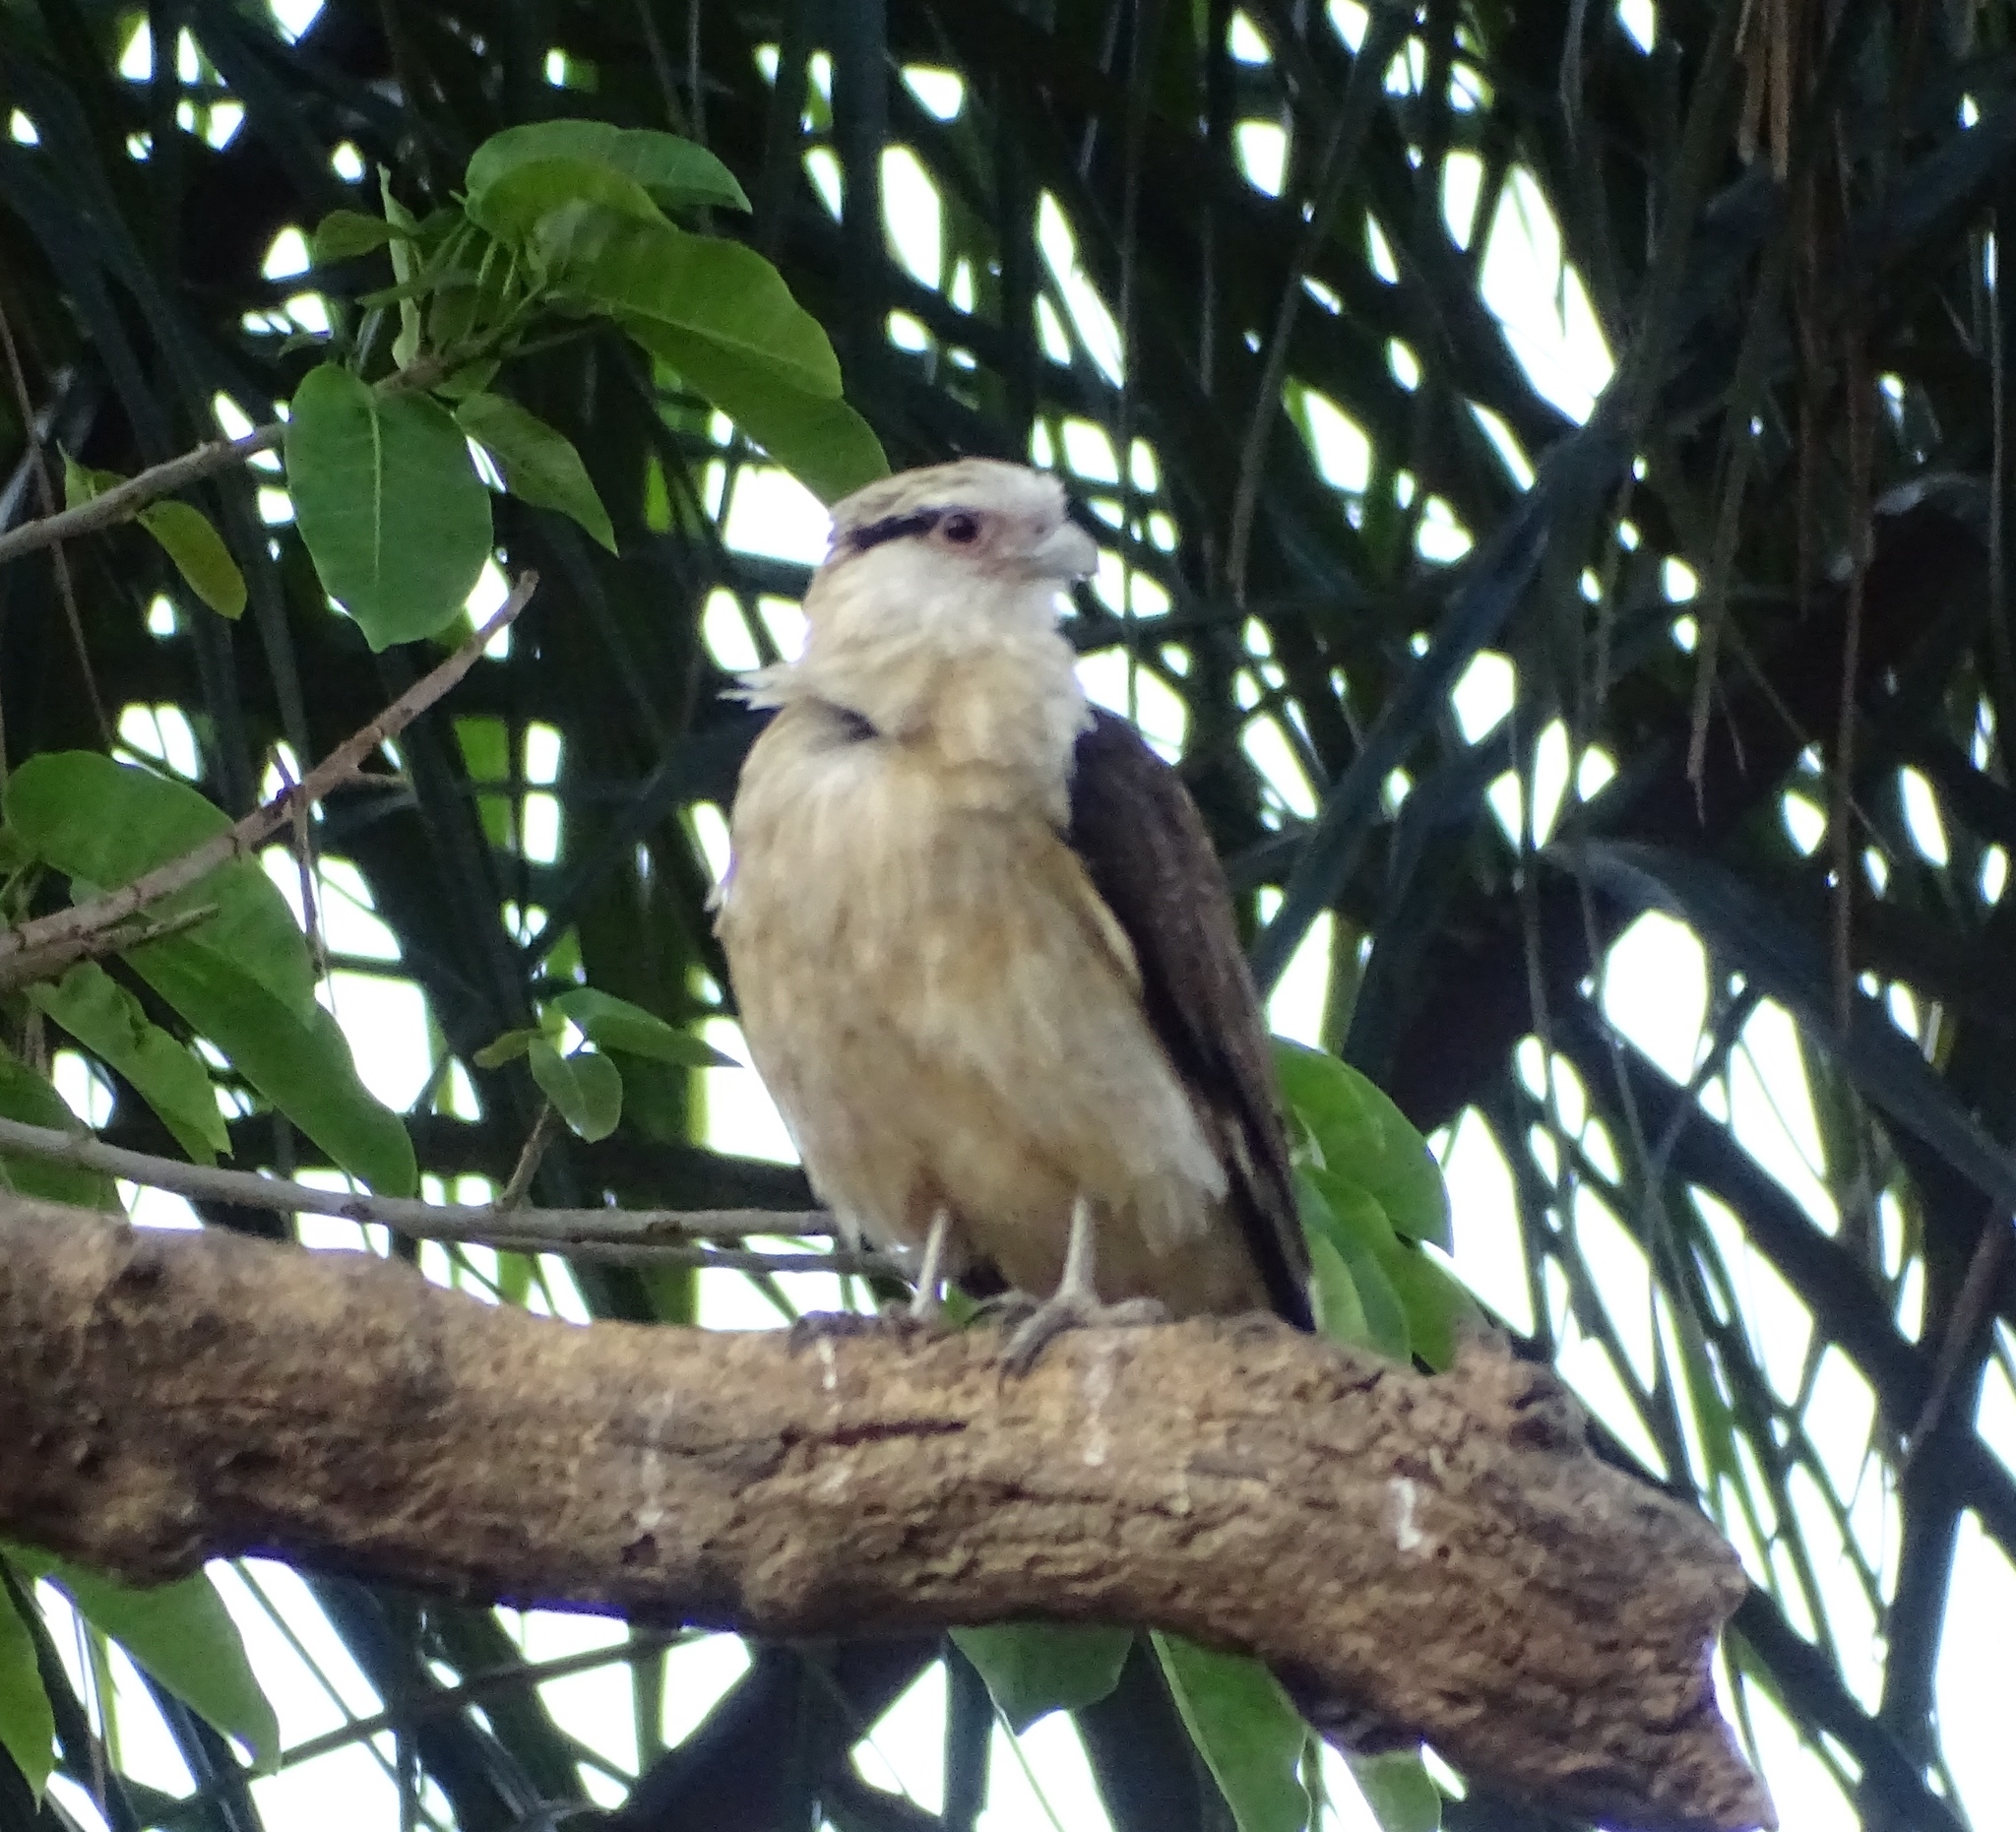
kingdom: Animalia
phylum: Chordata
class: Aves
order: Falconiformes
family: Falconidae
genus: Daptrius
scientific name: Daptrius
